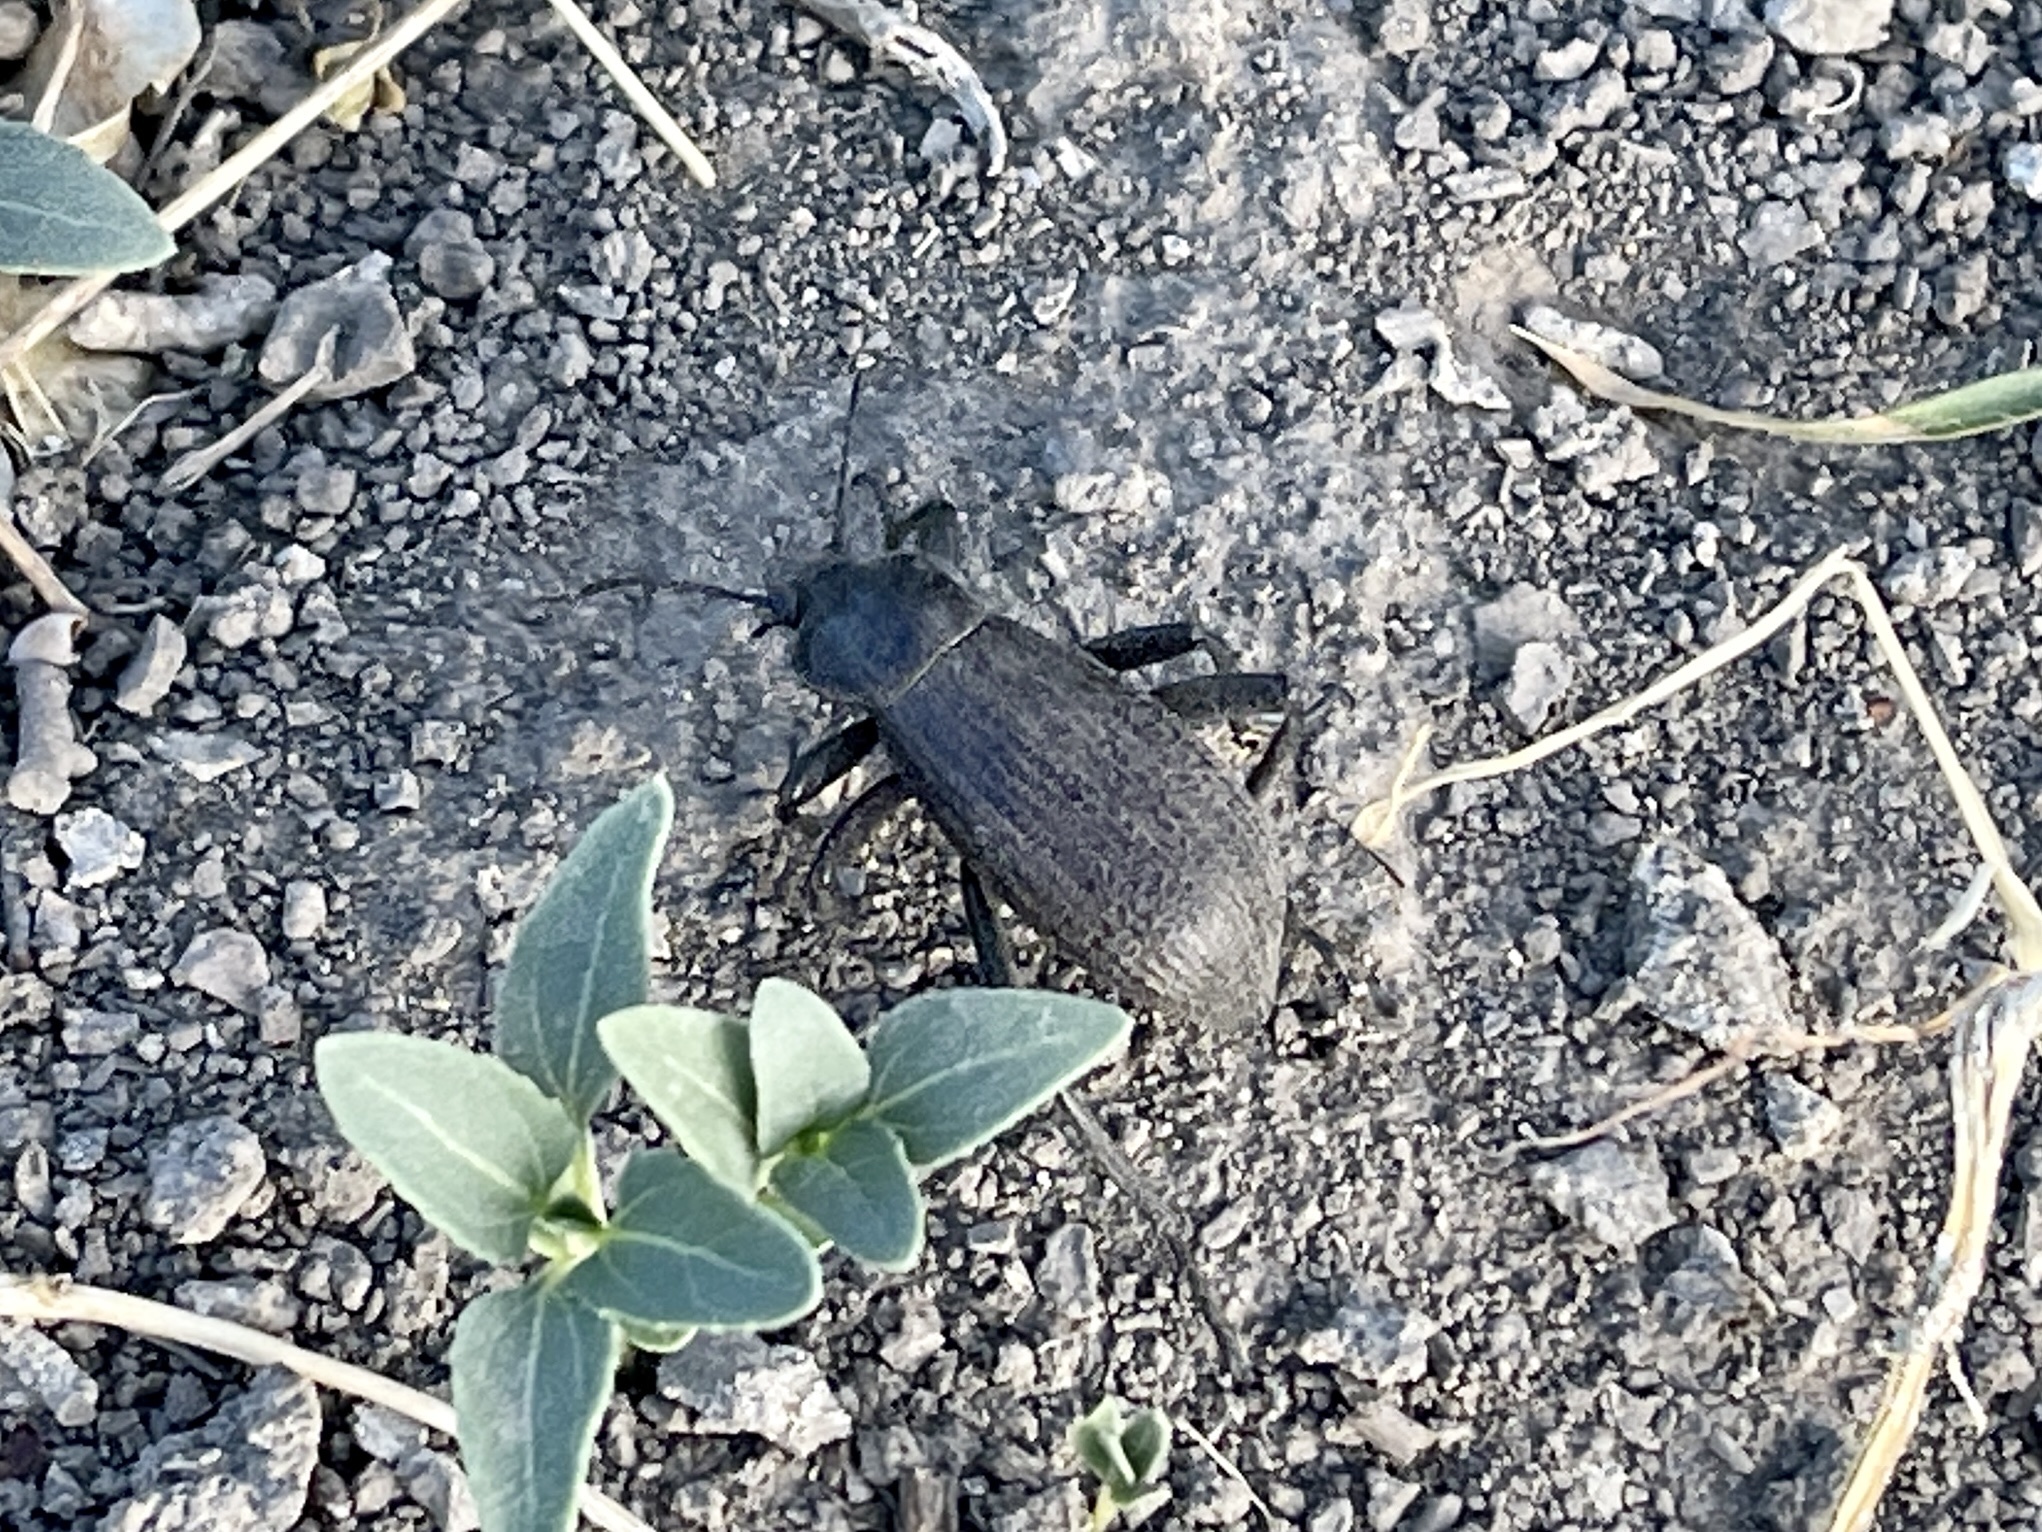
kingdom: Animalia
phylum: Arthropoda
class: Insecta
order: Coleoptera
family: Tenebrionidae
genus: Eleodes
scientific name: Eleodes obscura
